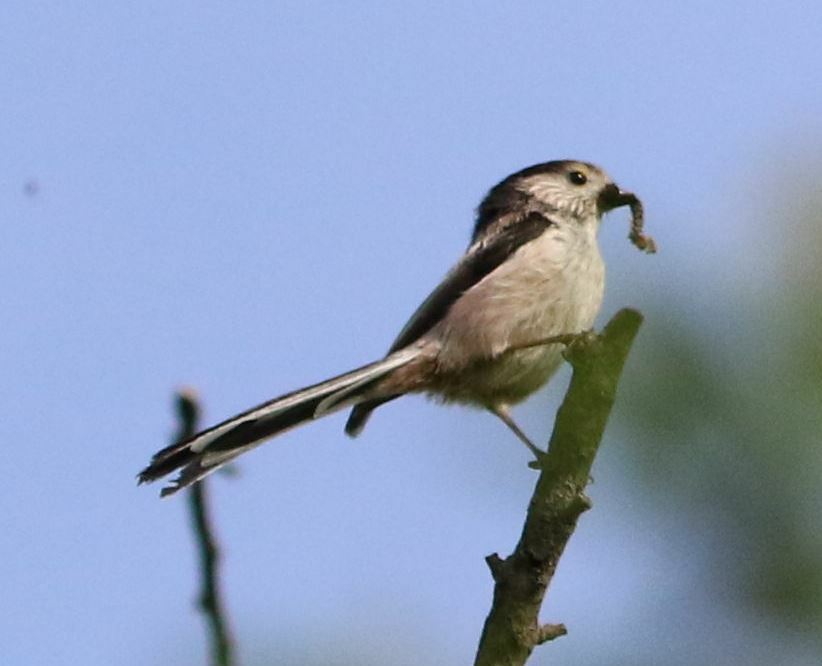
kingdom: Animalia
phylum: Chordata
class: Aves
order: Passeriformes
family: Aegithalidae
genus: Aegithalos
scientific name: Aegithalos caudatus
